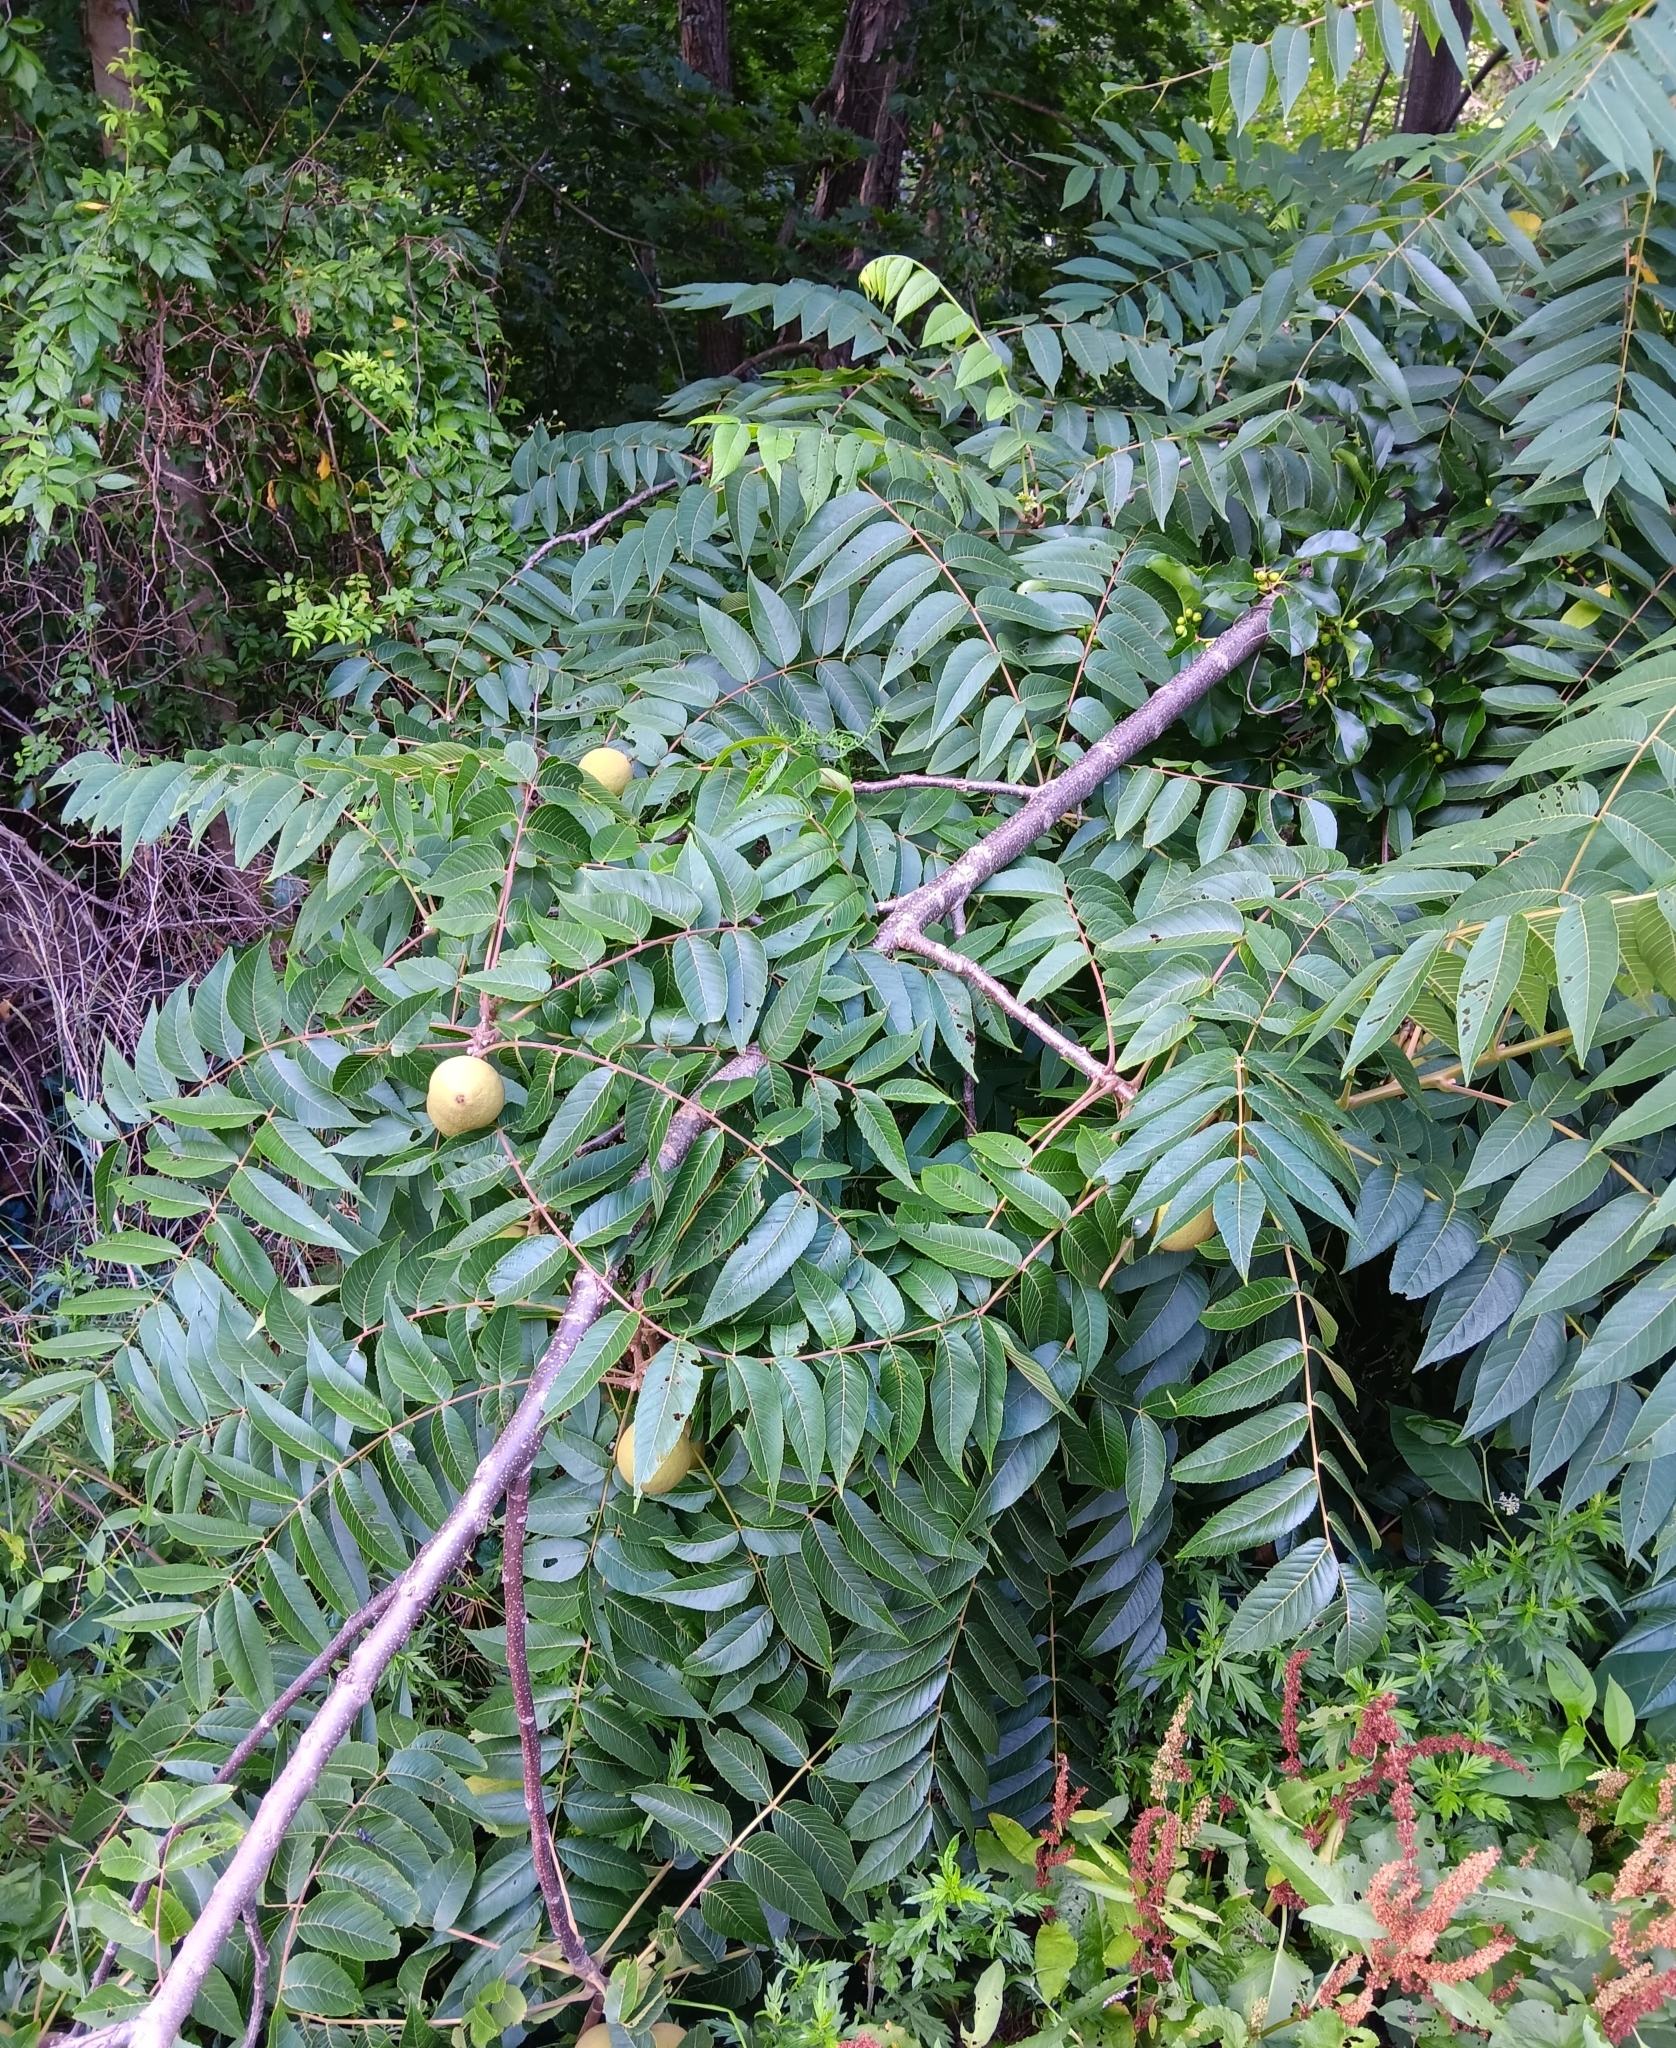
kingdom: Plantae
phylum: Tracheophyta
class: Magnoliopsida
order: Fagales
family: Juglandaceae
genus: Juglans
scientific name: Juglans nigra
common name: Black walnut
